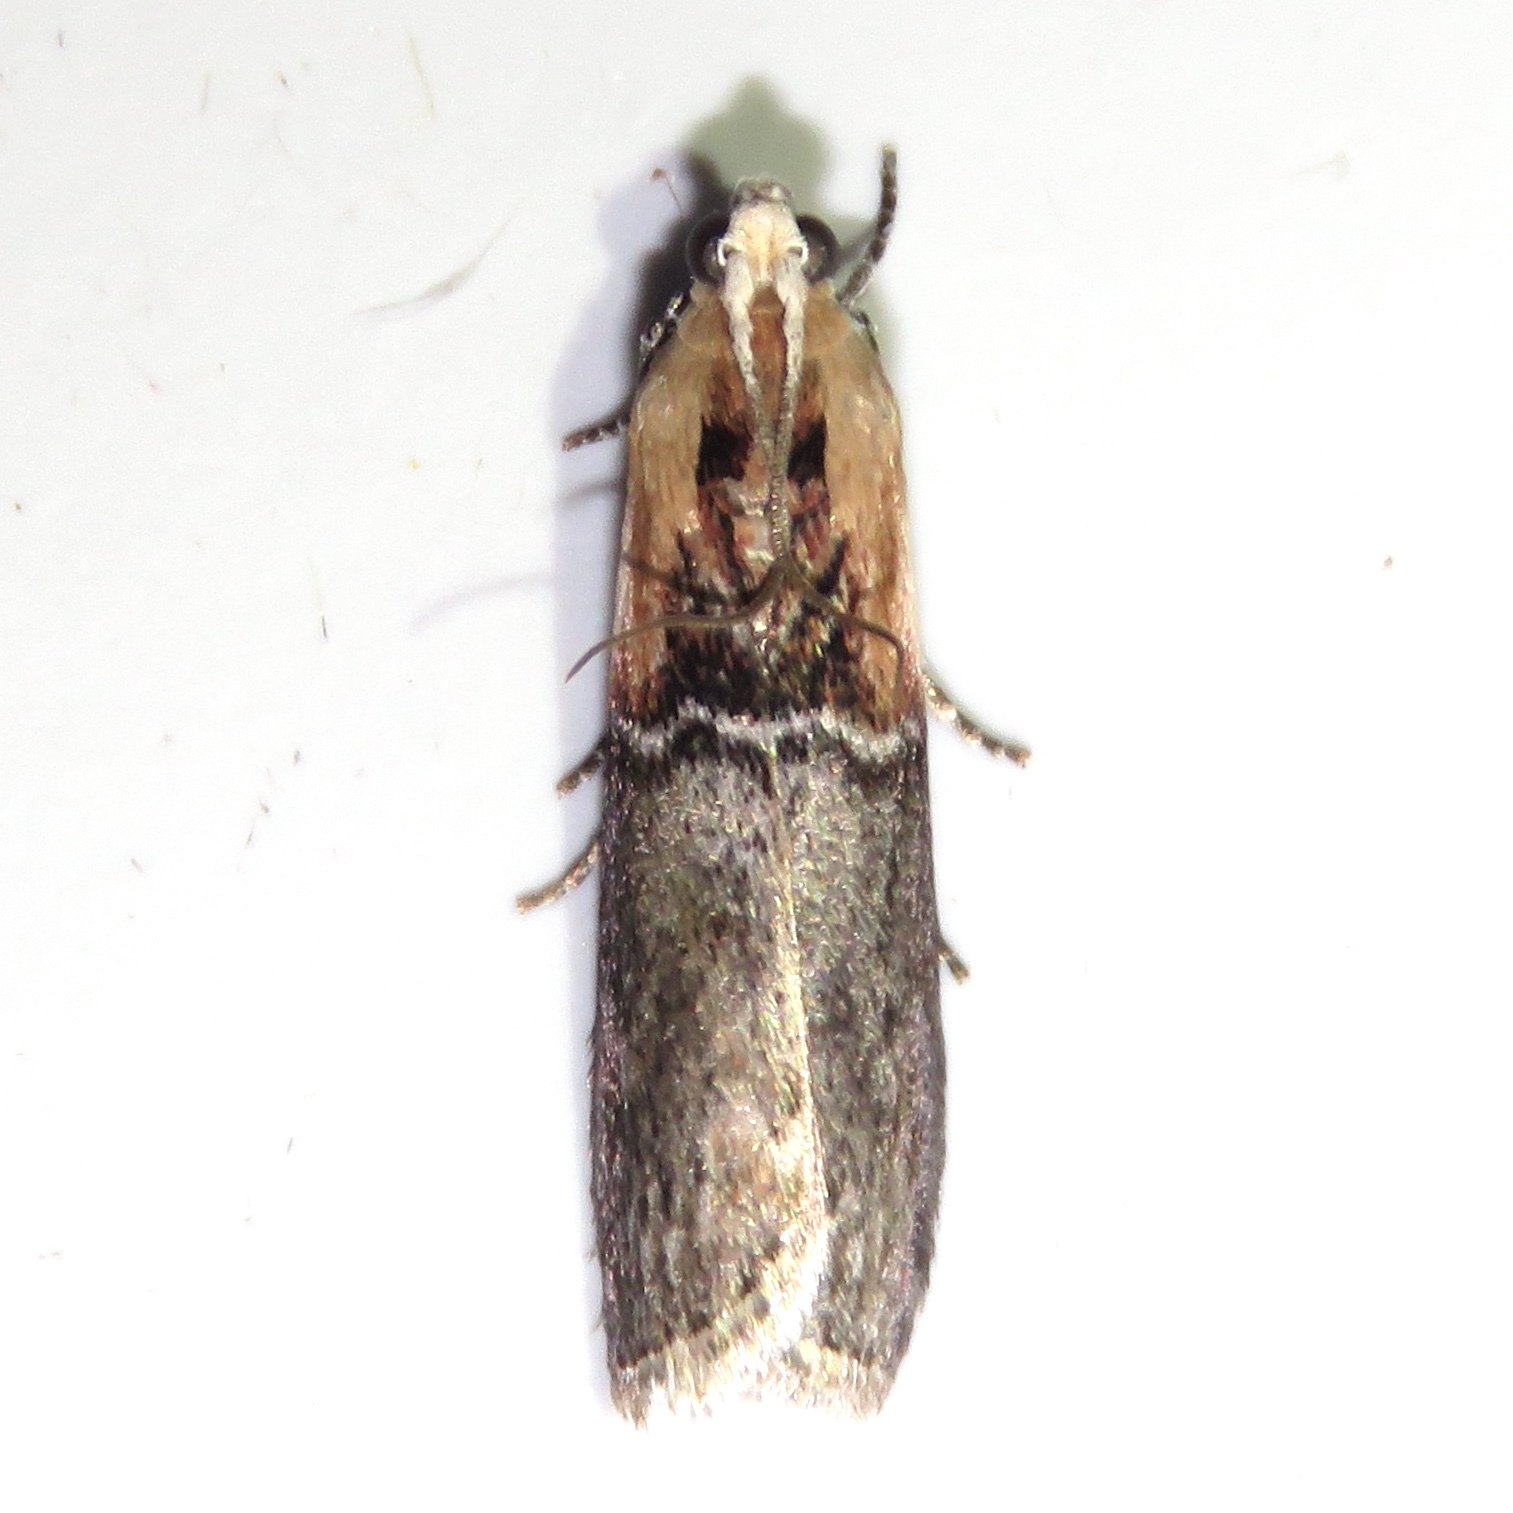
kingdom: Animalia
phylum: Arthropoda
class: Insecta
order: Lepidoptera
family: Pyralidae
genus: Sciota
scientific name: Sciota basilaris
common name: Yellow-shouldered leafroller
